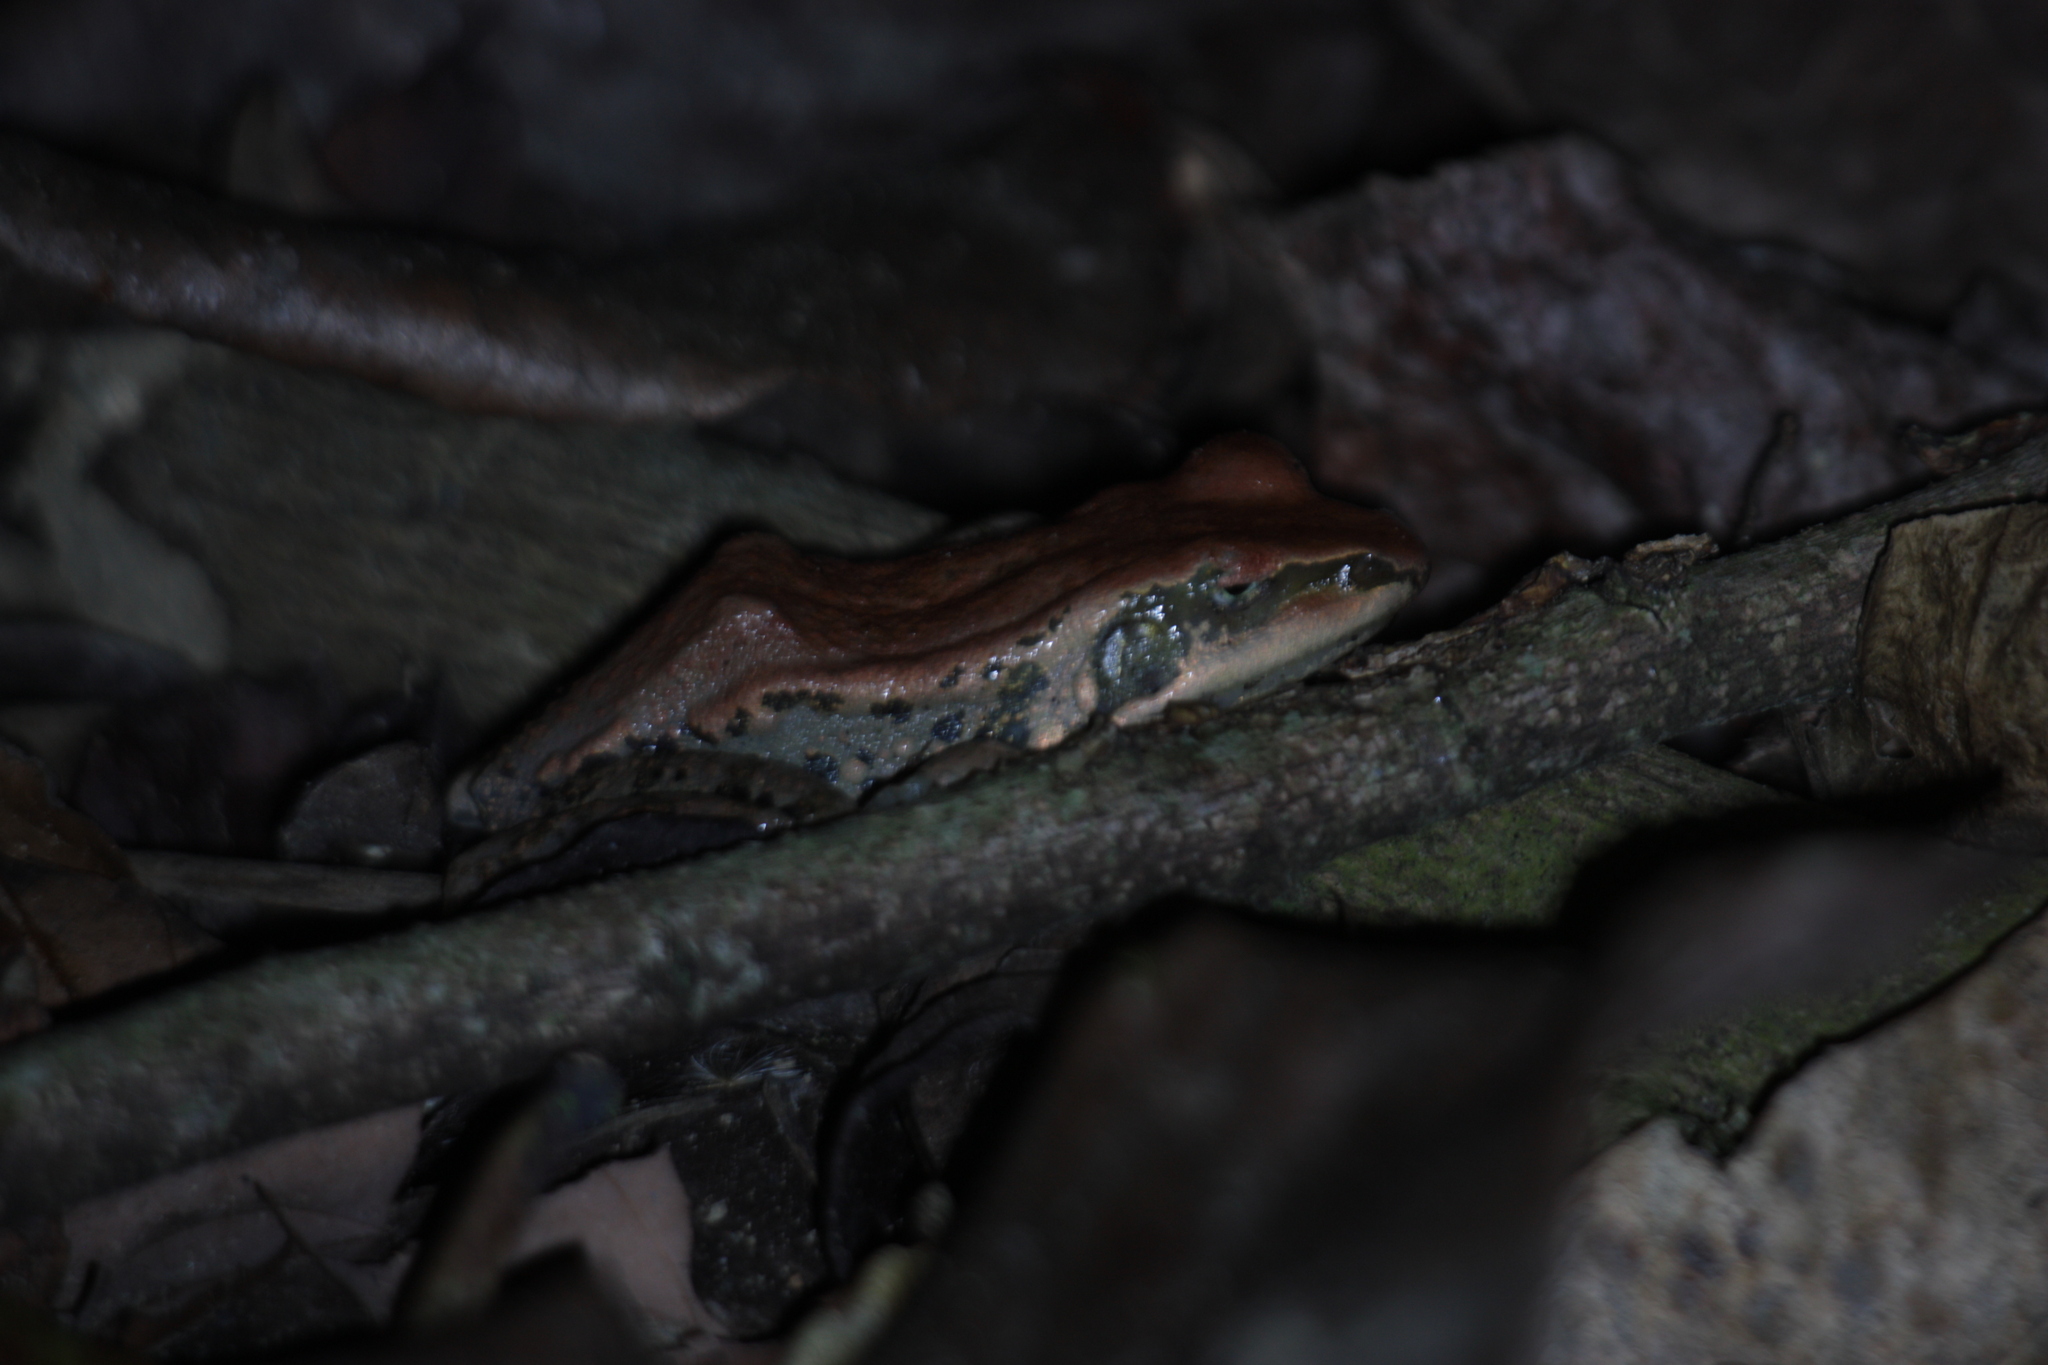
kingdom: Animalia
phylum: Chordata
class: Amphibia
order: Anura
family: Ranidae
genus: Hylarana
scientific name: Hylarana latouchii
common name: Broad-folded frog
